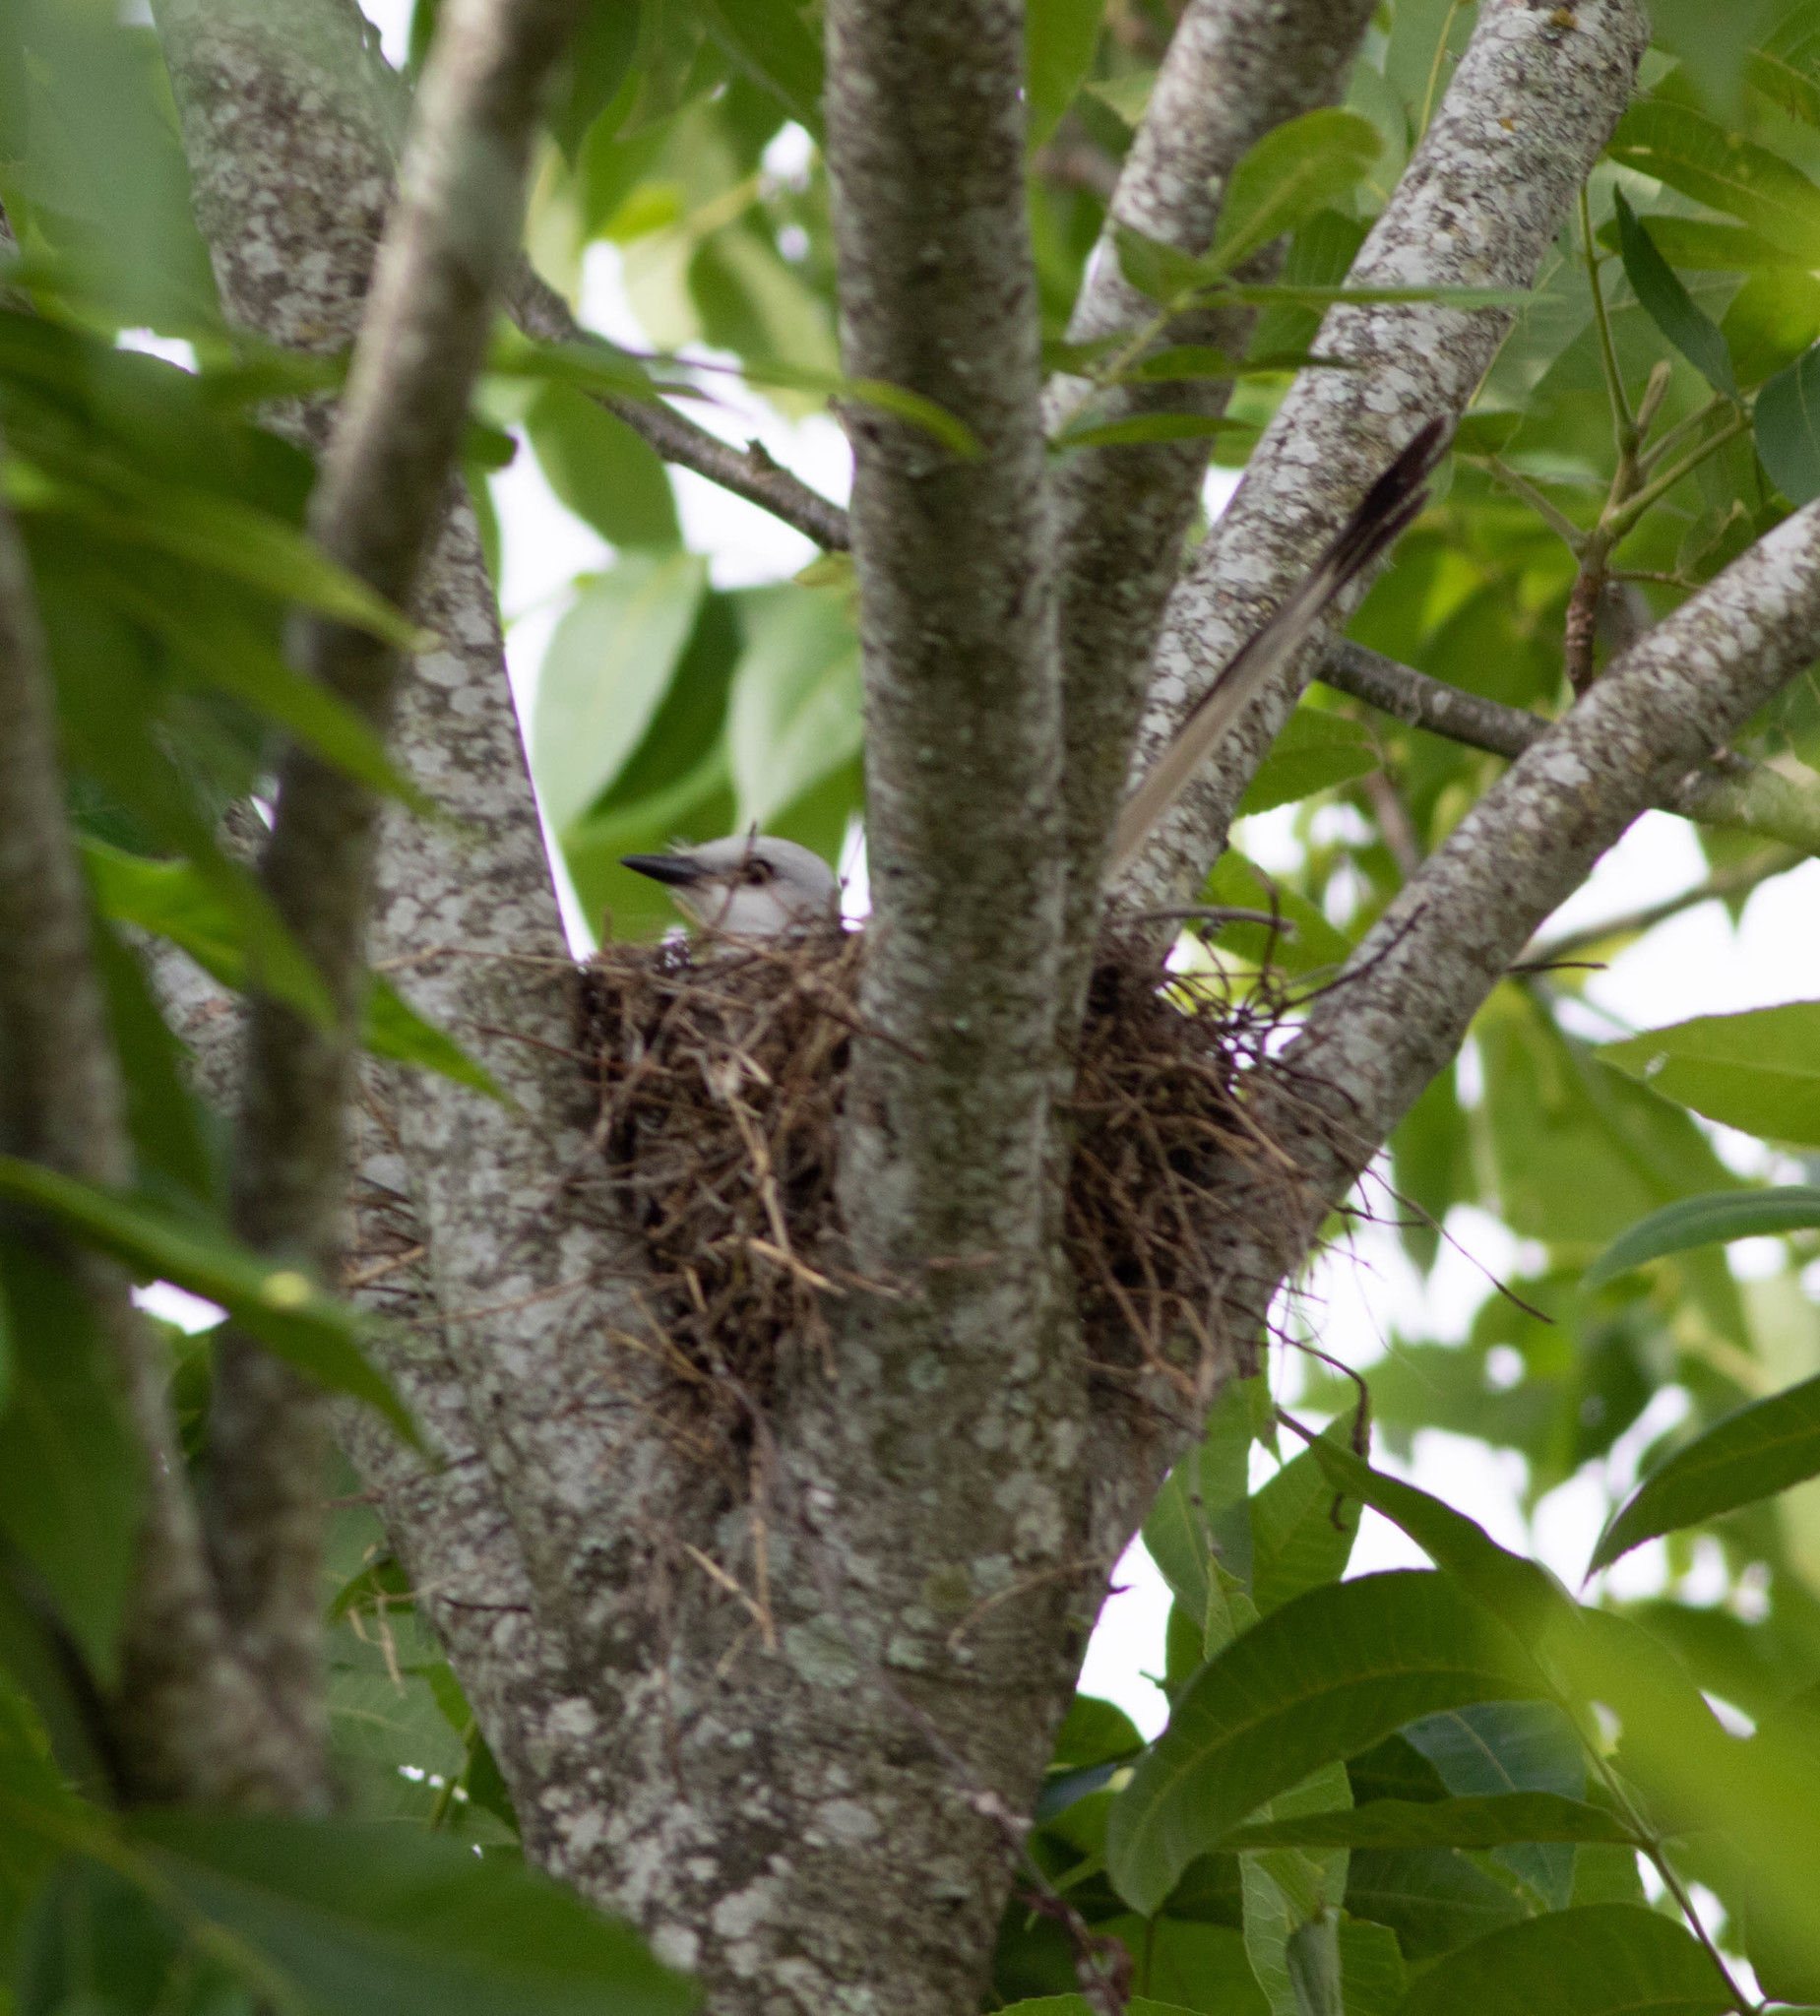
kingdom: Animalia
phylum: Chordata
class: Aves
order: Passeriformes
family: Tyrannidae
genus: Tyrannus
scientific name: Tyrannus forficatus
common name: Scissor-tailed flycatcher
